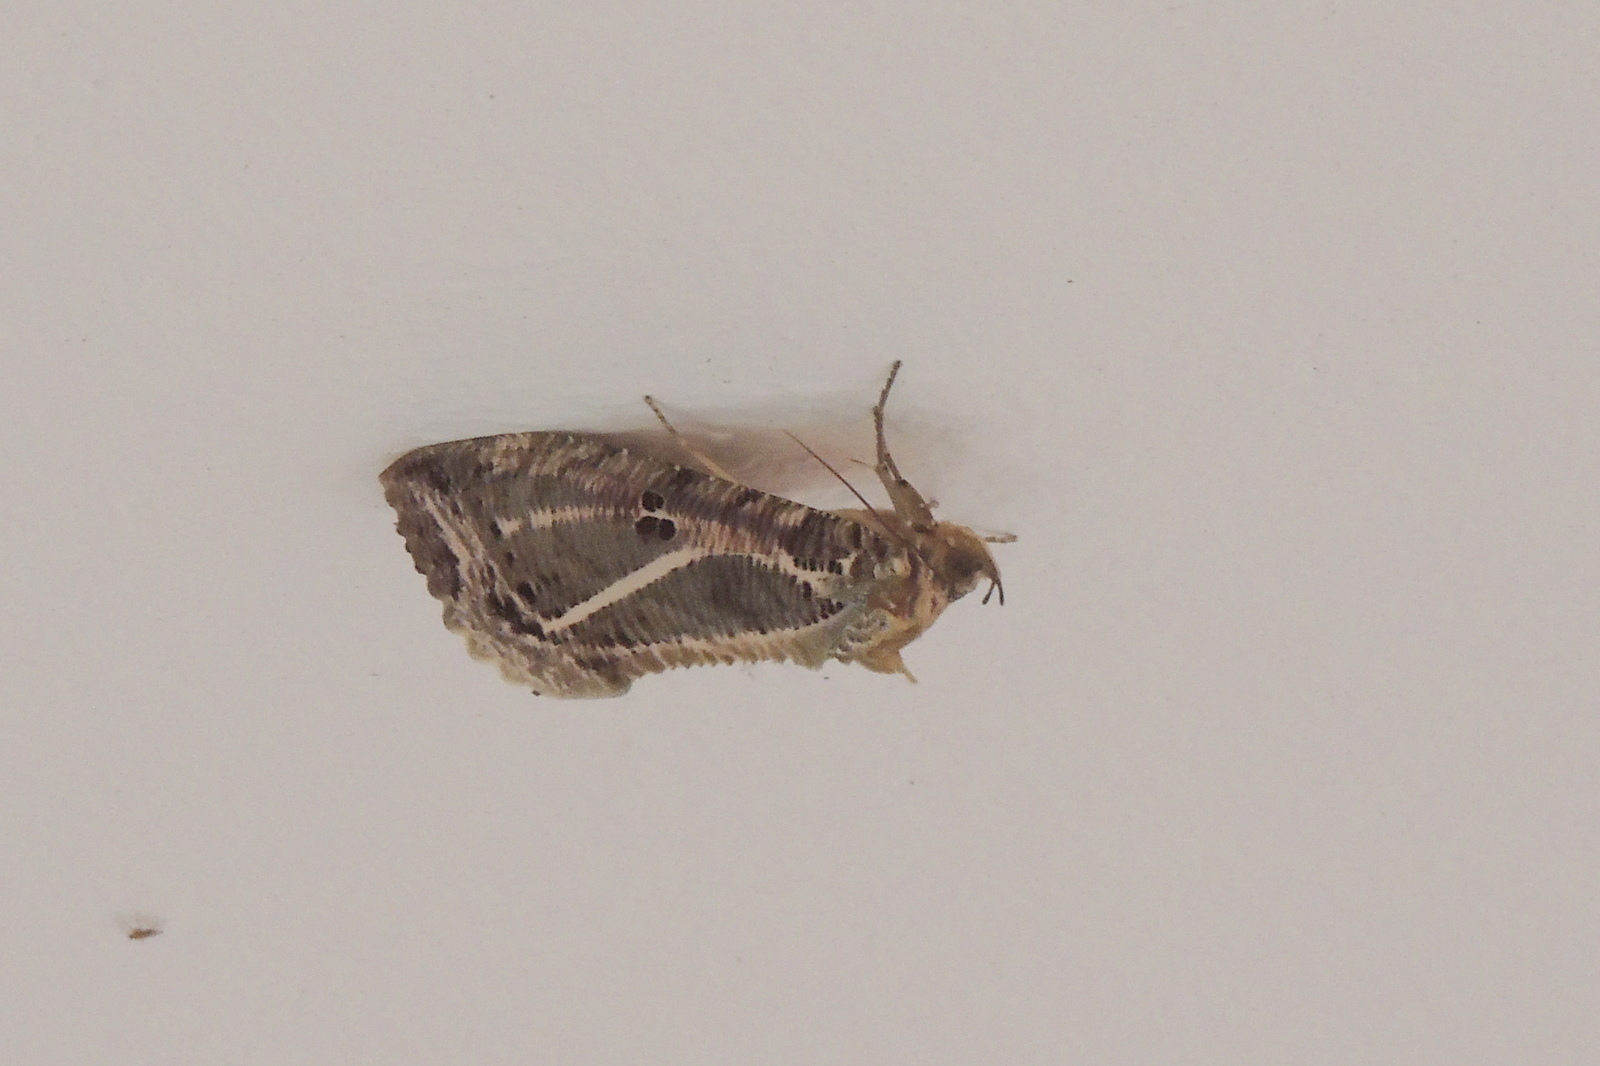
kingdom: Animalia
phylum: Arthropoda
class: Insecta
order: Lepidoptera
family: Erebidae
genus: Eudocima
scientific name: Eudocima materna
